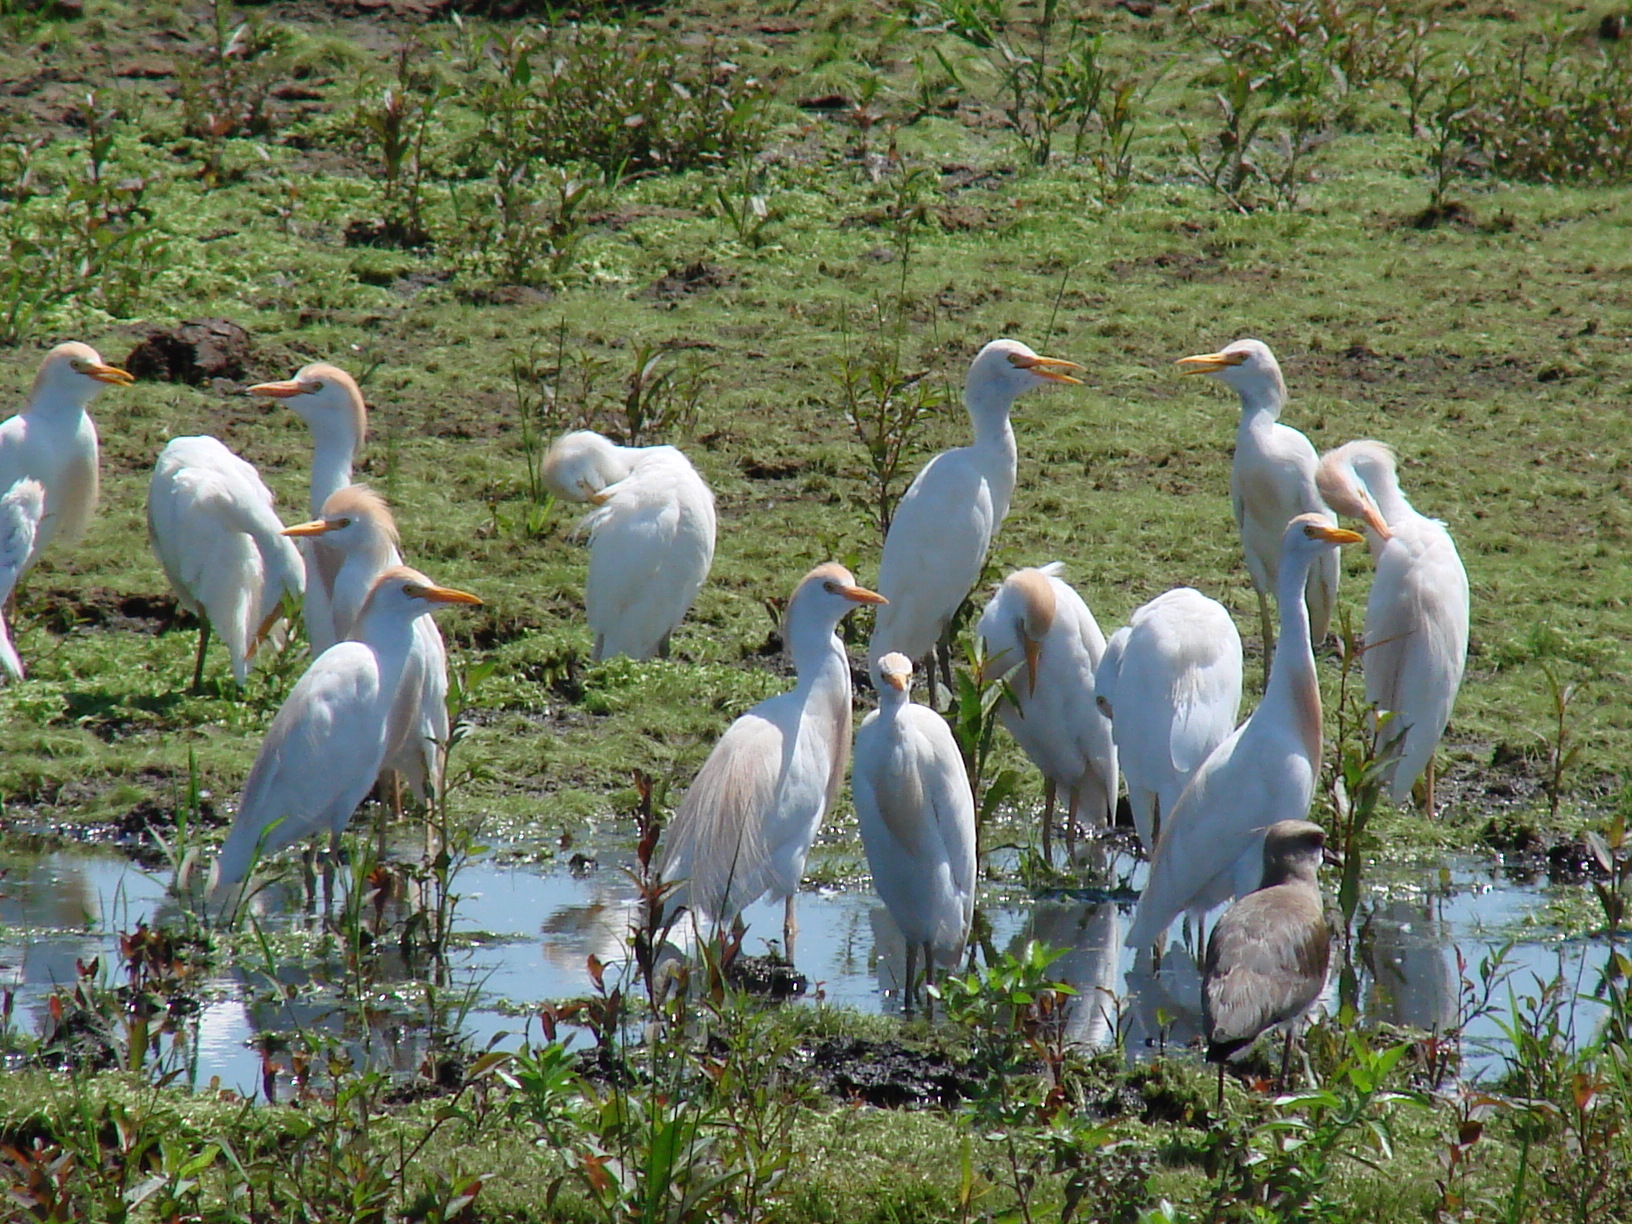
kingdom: Animalia
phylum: Chordata
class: Aves
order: Pelecaniformes
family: Ardeidae
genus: Bubulcus
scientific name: Bubulcus ibis
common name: Cattle egret
